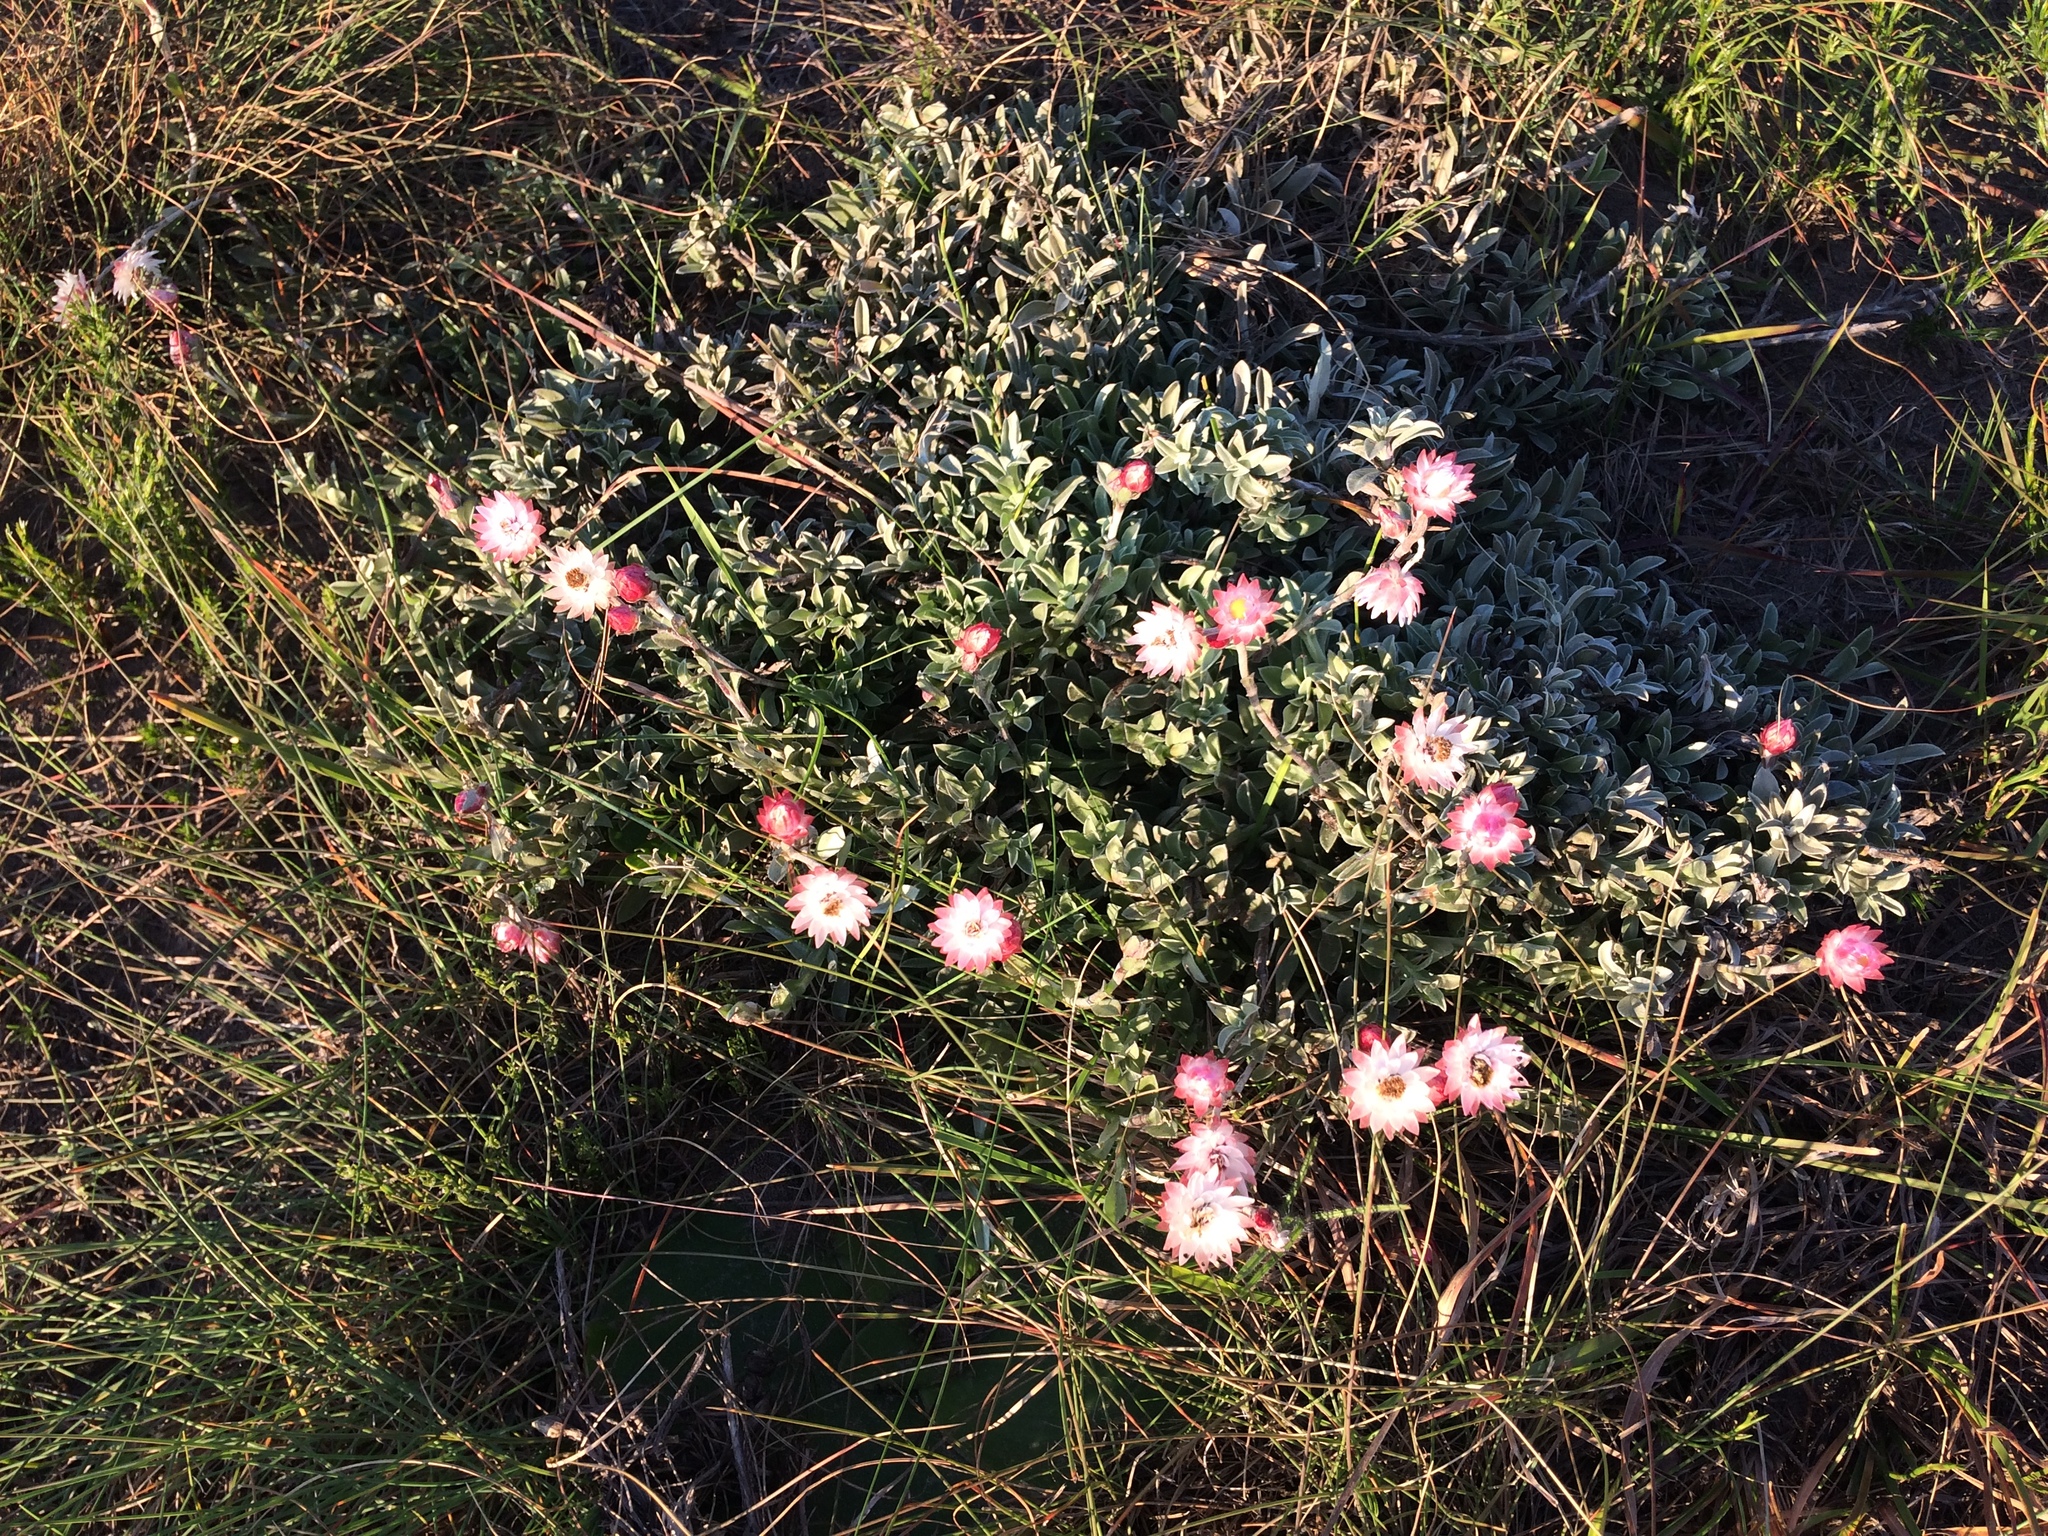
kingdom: Plantae
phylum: Tracheophyta
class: Magnoliopsida
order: Asterales
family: Asteraceae
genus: Achyranthemum
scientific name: Achyranthemum affine
